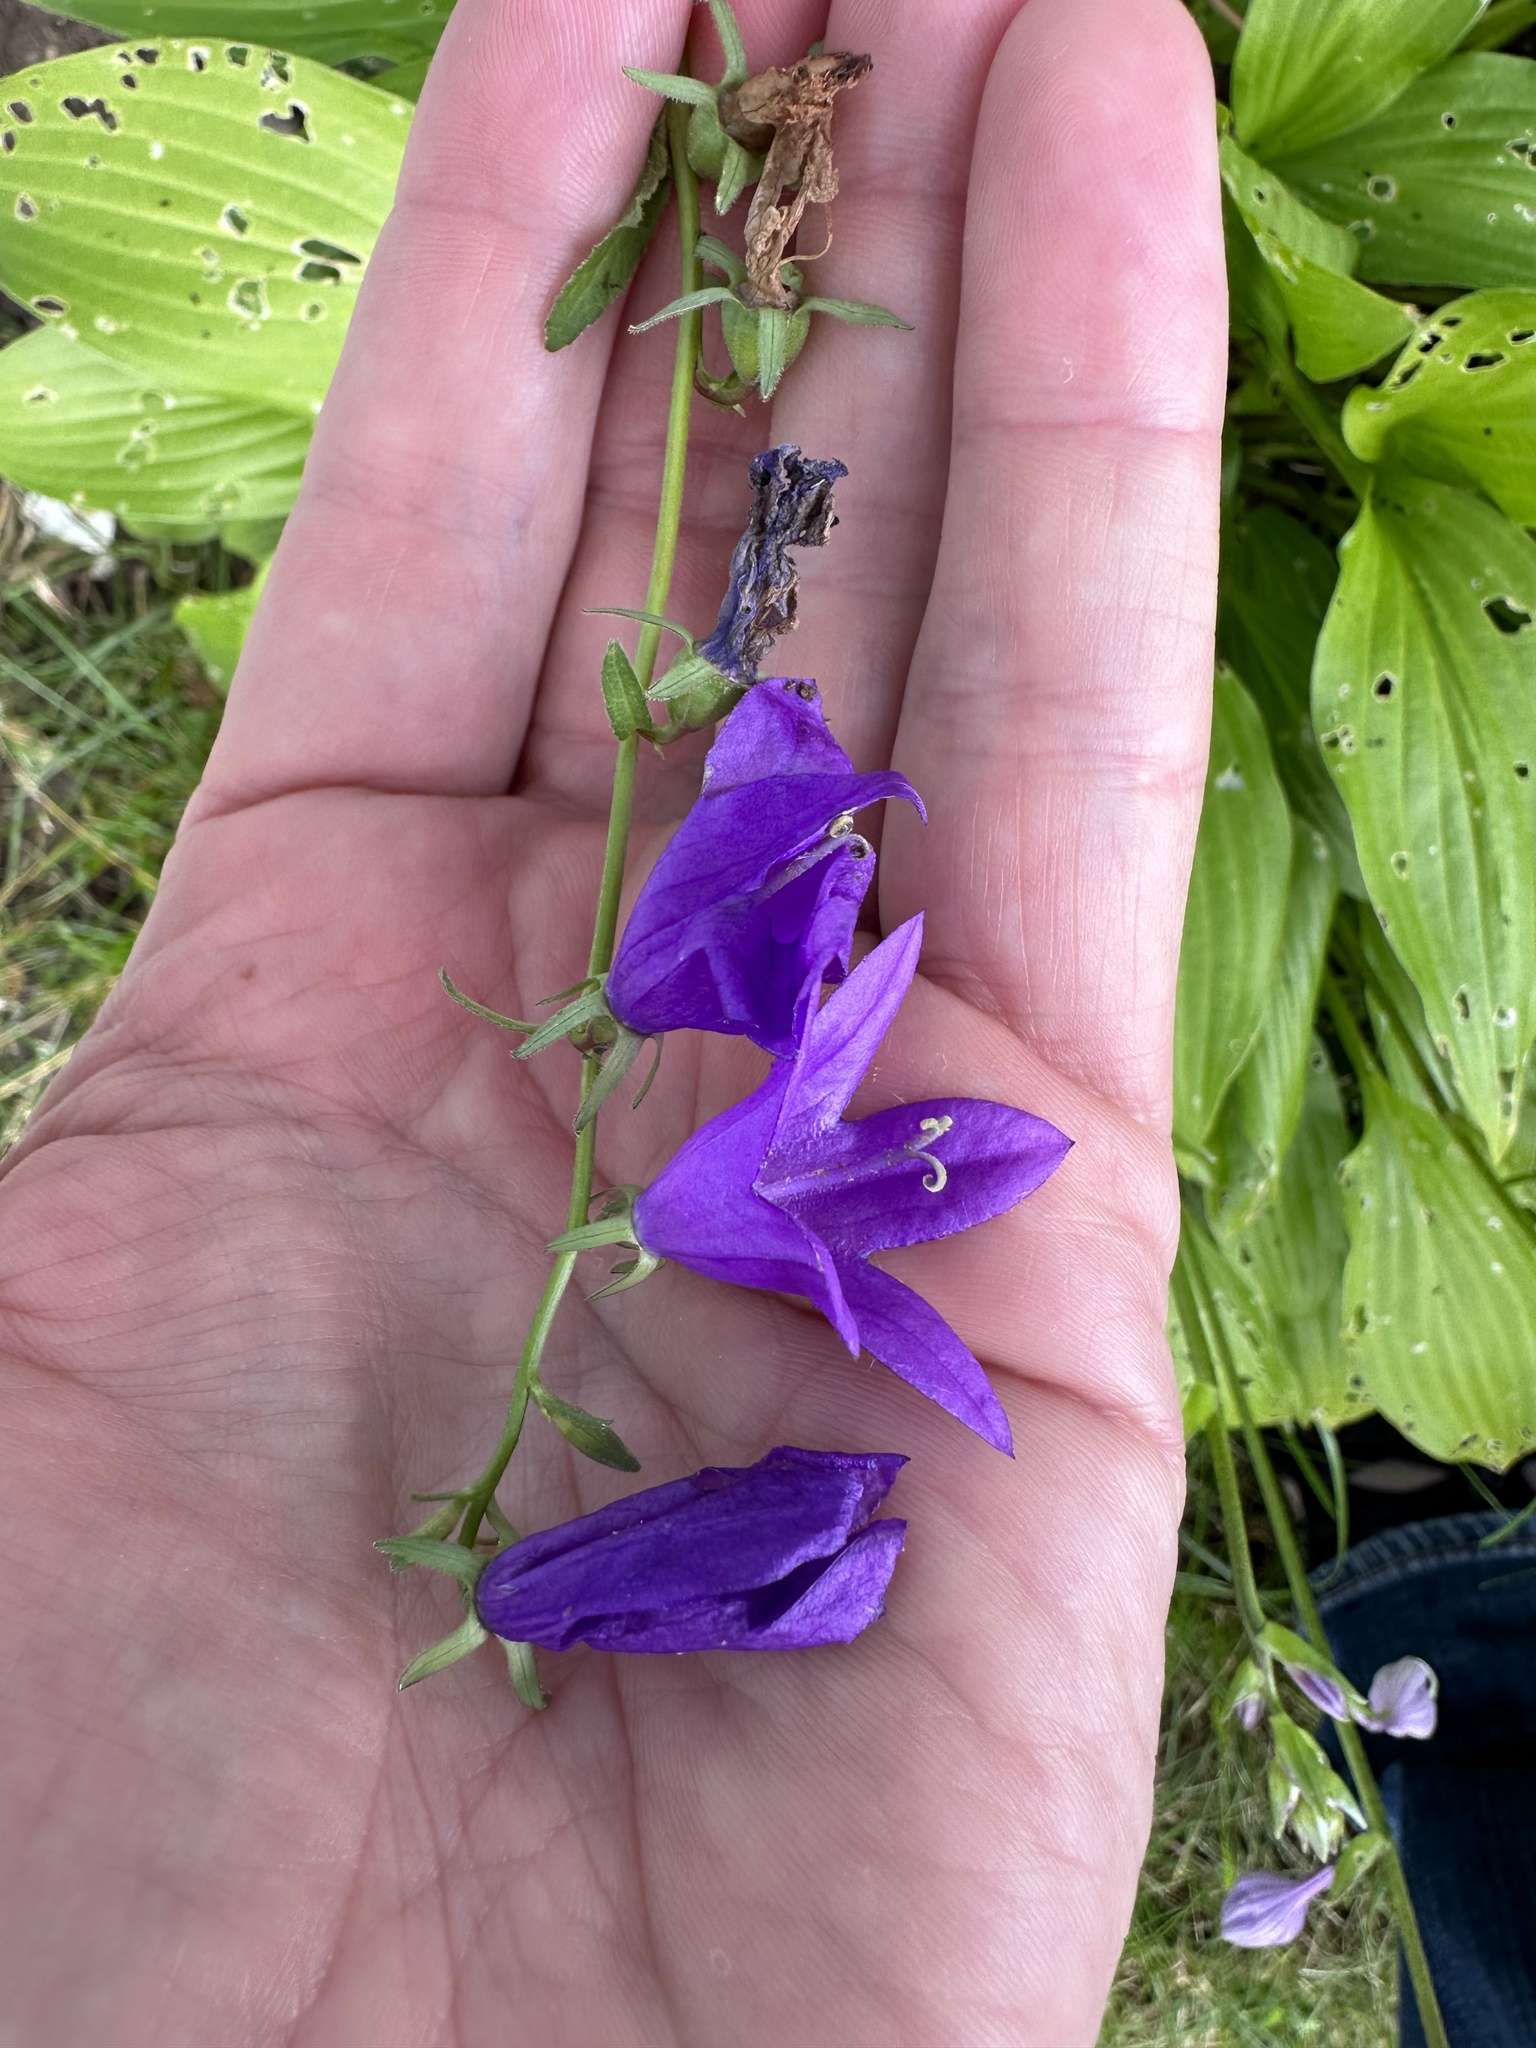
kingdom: Plantae
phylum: Tracheophyta
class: Magnoliopsida
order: Asterales
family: Campanulaceae
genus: Campanula
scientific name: Campanula rapunculoides
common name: Creeping bellflower
